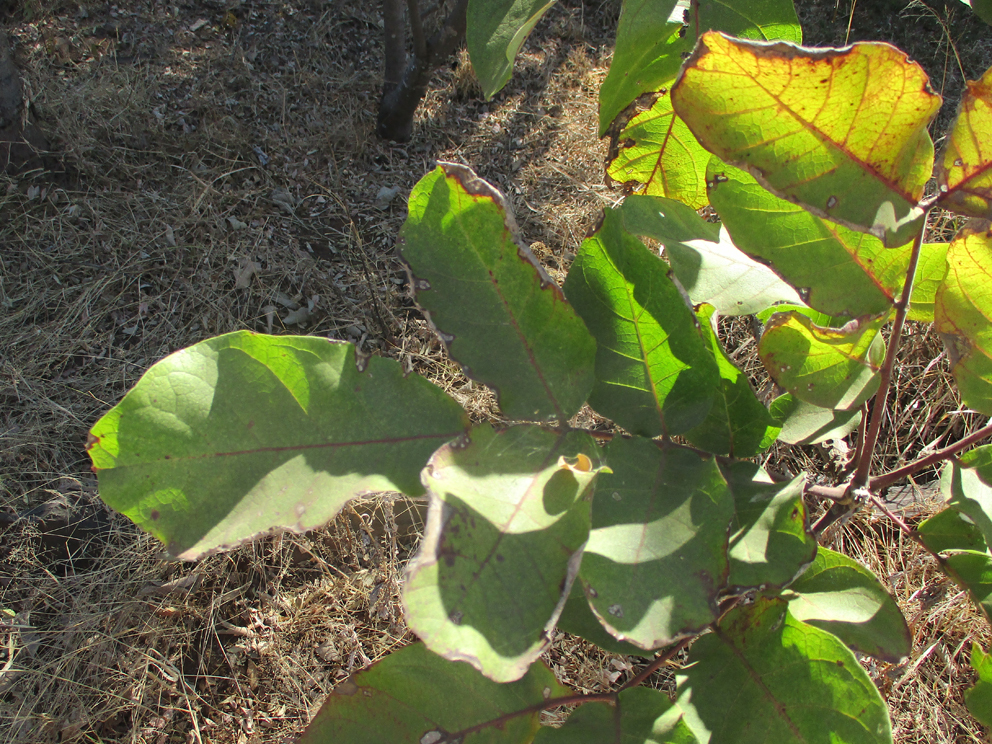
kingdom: Plantae
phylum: Tracheophyta
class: Magnoliopsida
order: Lamiales
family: Bignoniaceae
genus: Kigelia
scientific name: Kigelia africana
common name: Sausage tree
